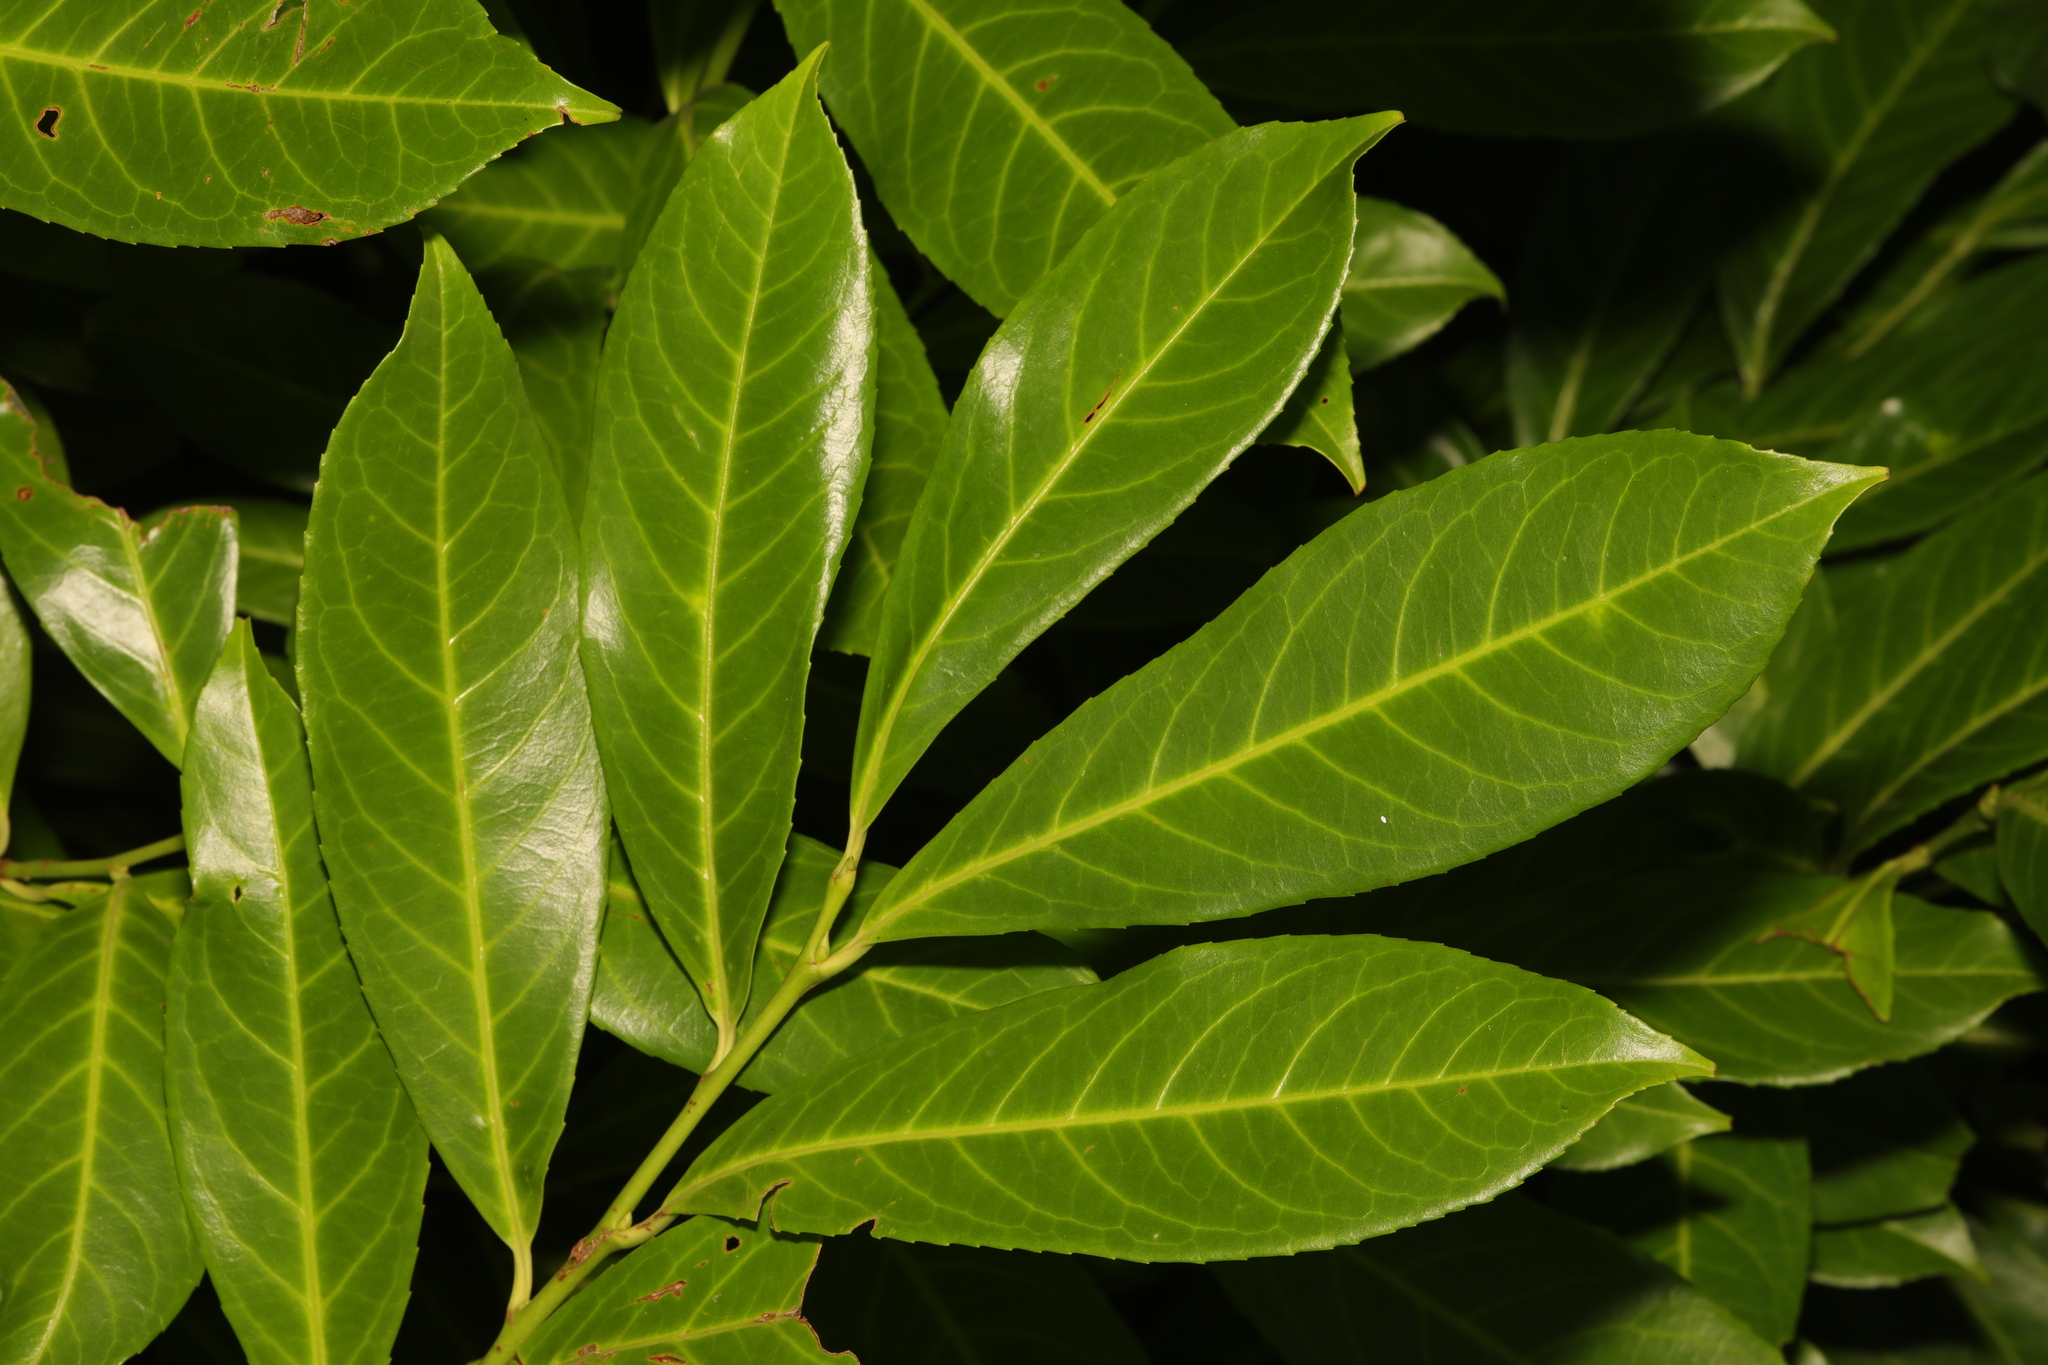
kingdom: Plantae
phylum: Tracheophyta
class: Magnoliopsida
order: Rosales
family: Rosaceae
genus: Prunus
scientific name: Prunus laurocerasus
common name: Cherry laurel
